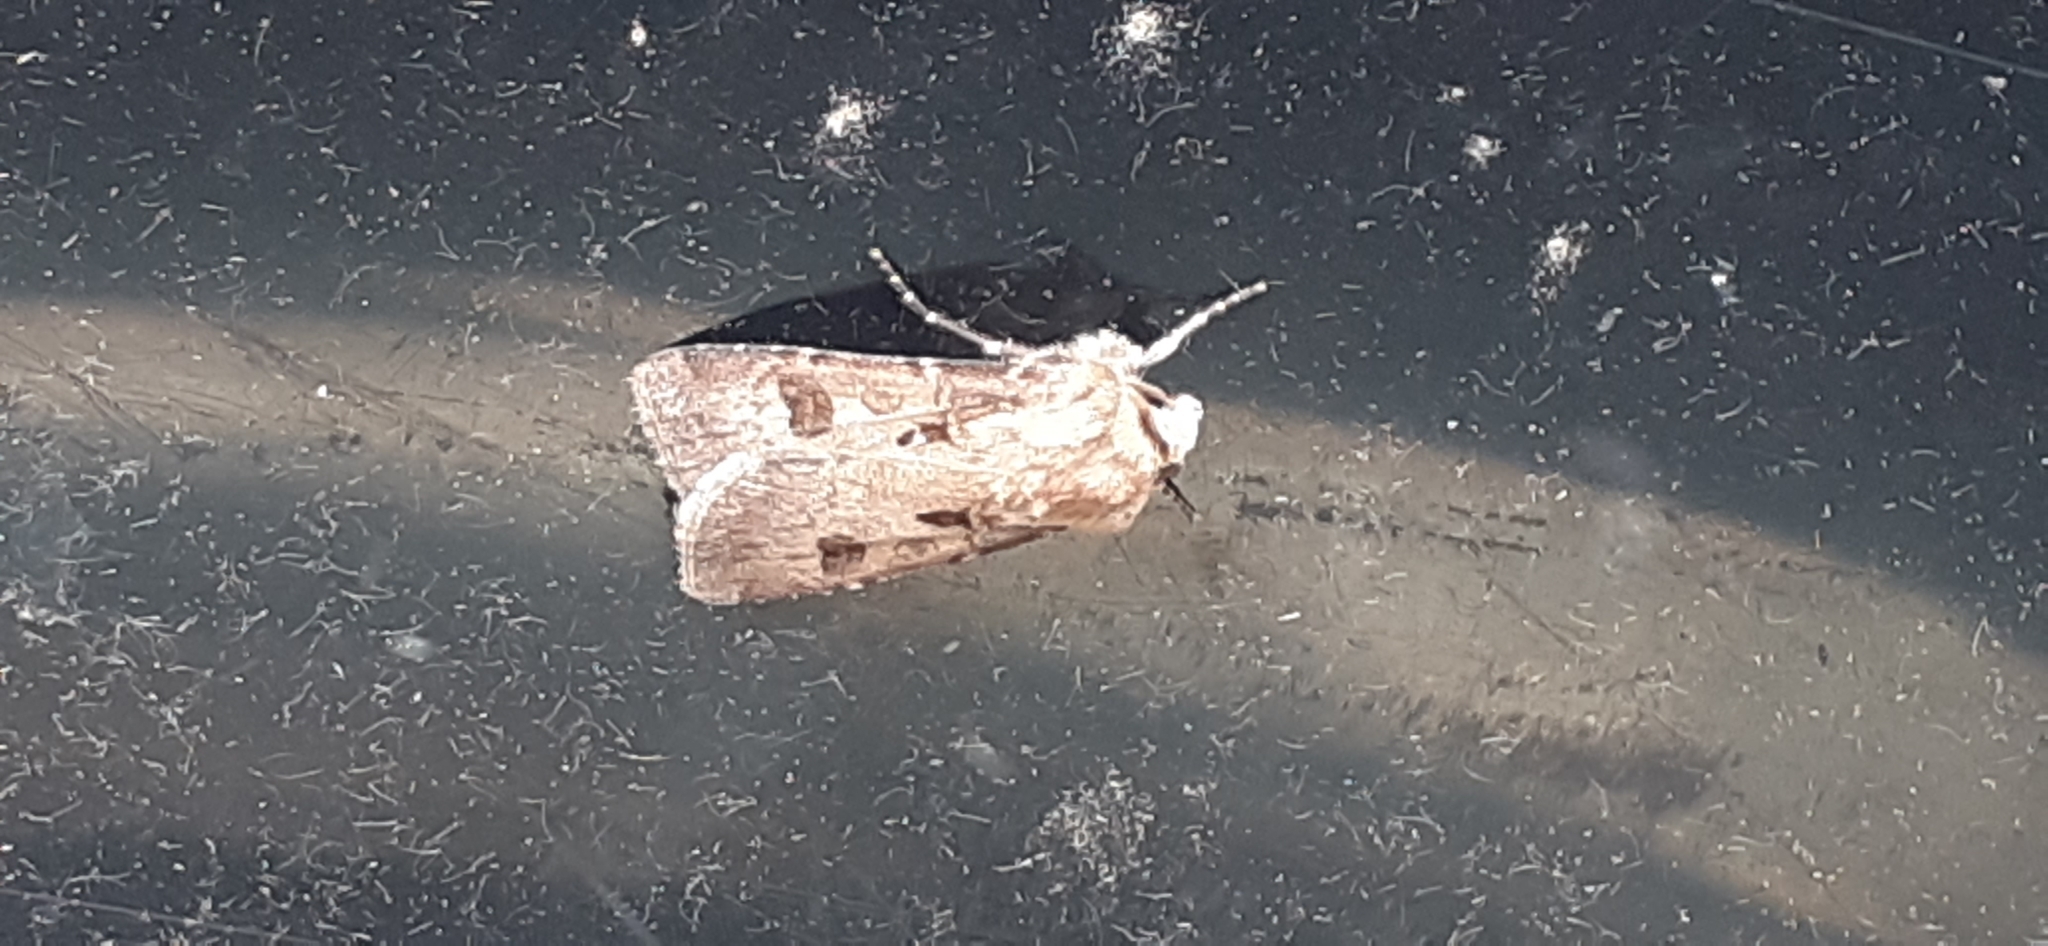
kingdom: Animalia
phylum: Arthropoda
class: Insecta
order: Lepidoptera
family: Noctuidae
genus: Agrotis
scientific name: Agrotis exclamationis
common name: Heart and dart
